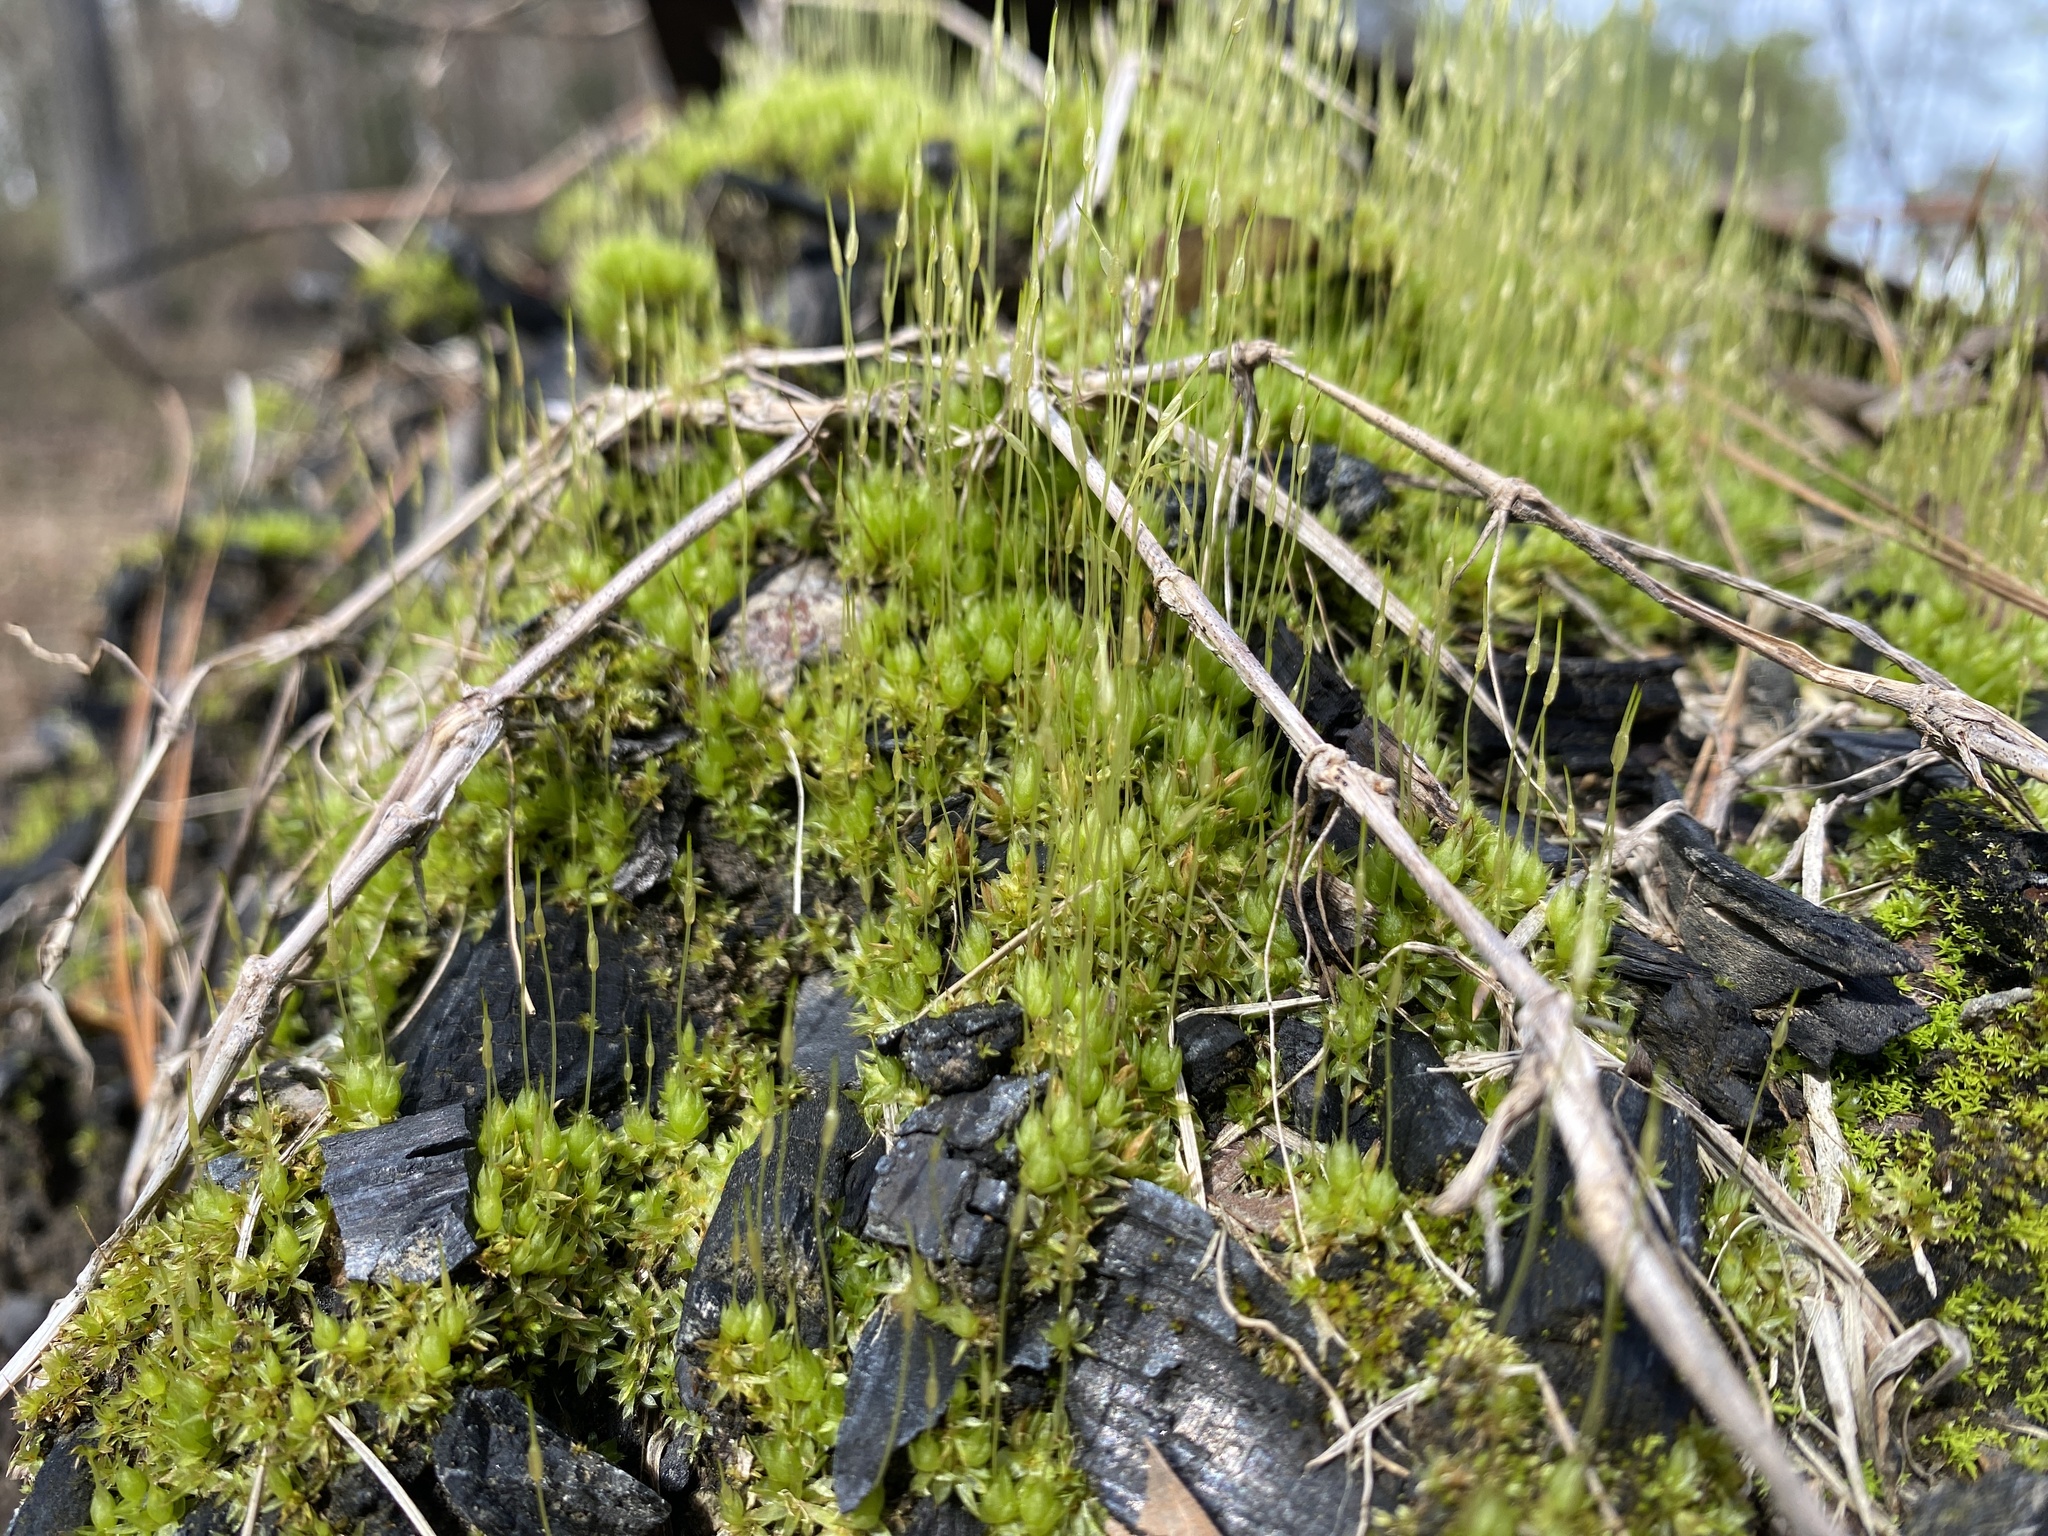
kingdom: Plantae
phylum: Bryophyta
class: Bryopsida
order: Funariales
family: Funariaceae
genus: Funaria
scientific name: Funaria hygrometrica
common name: Common cord moss
